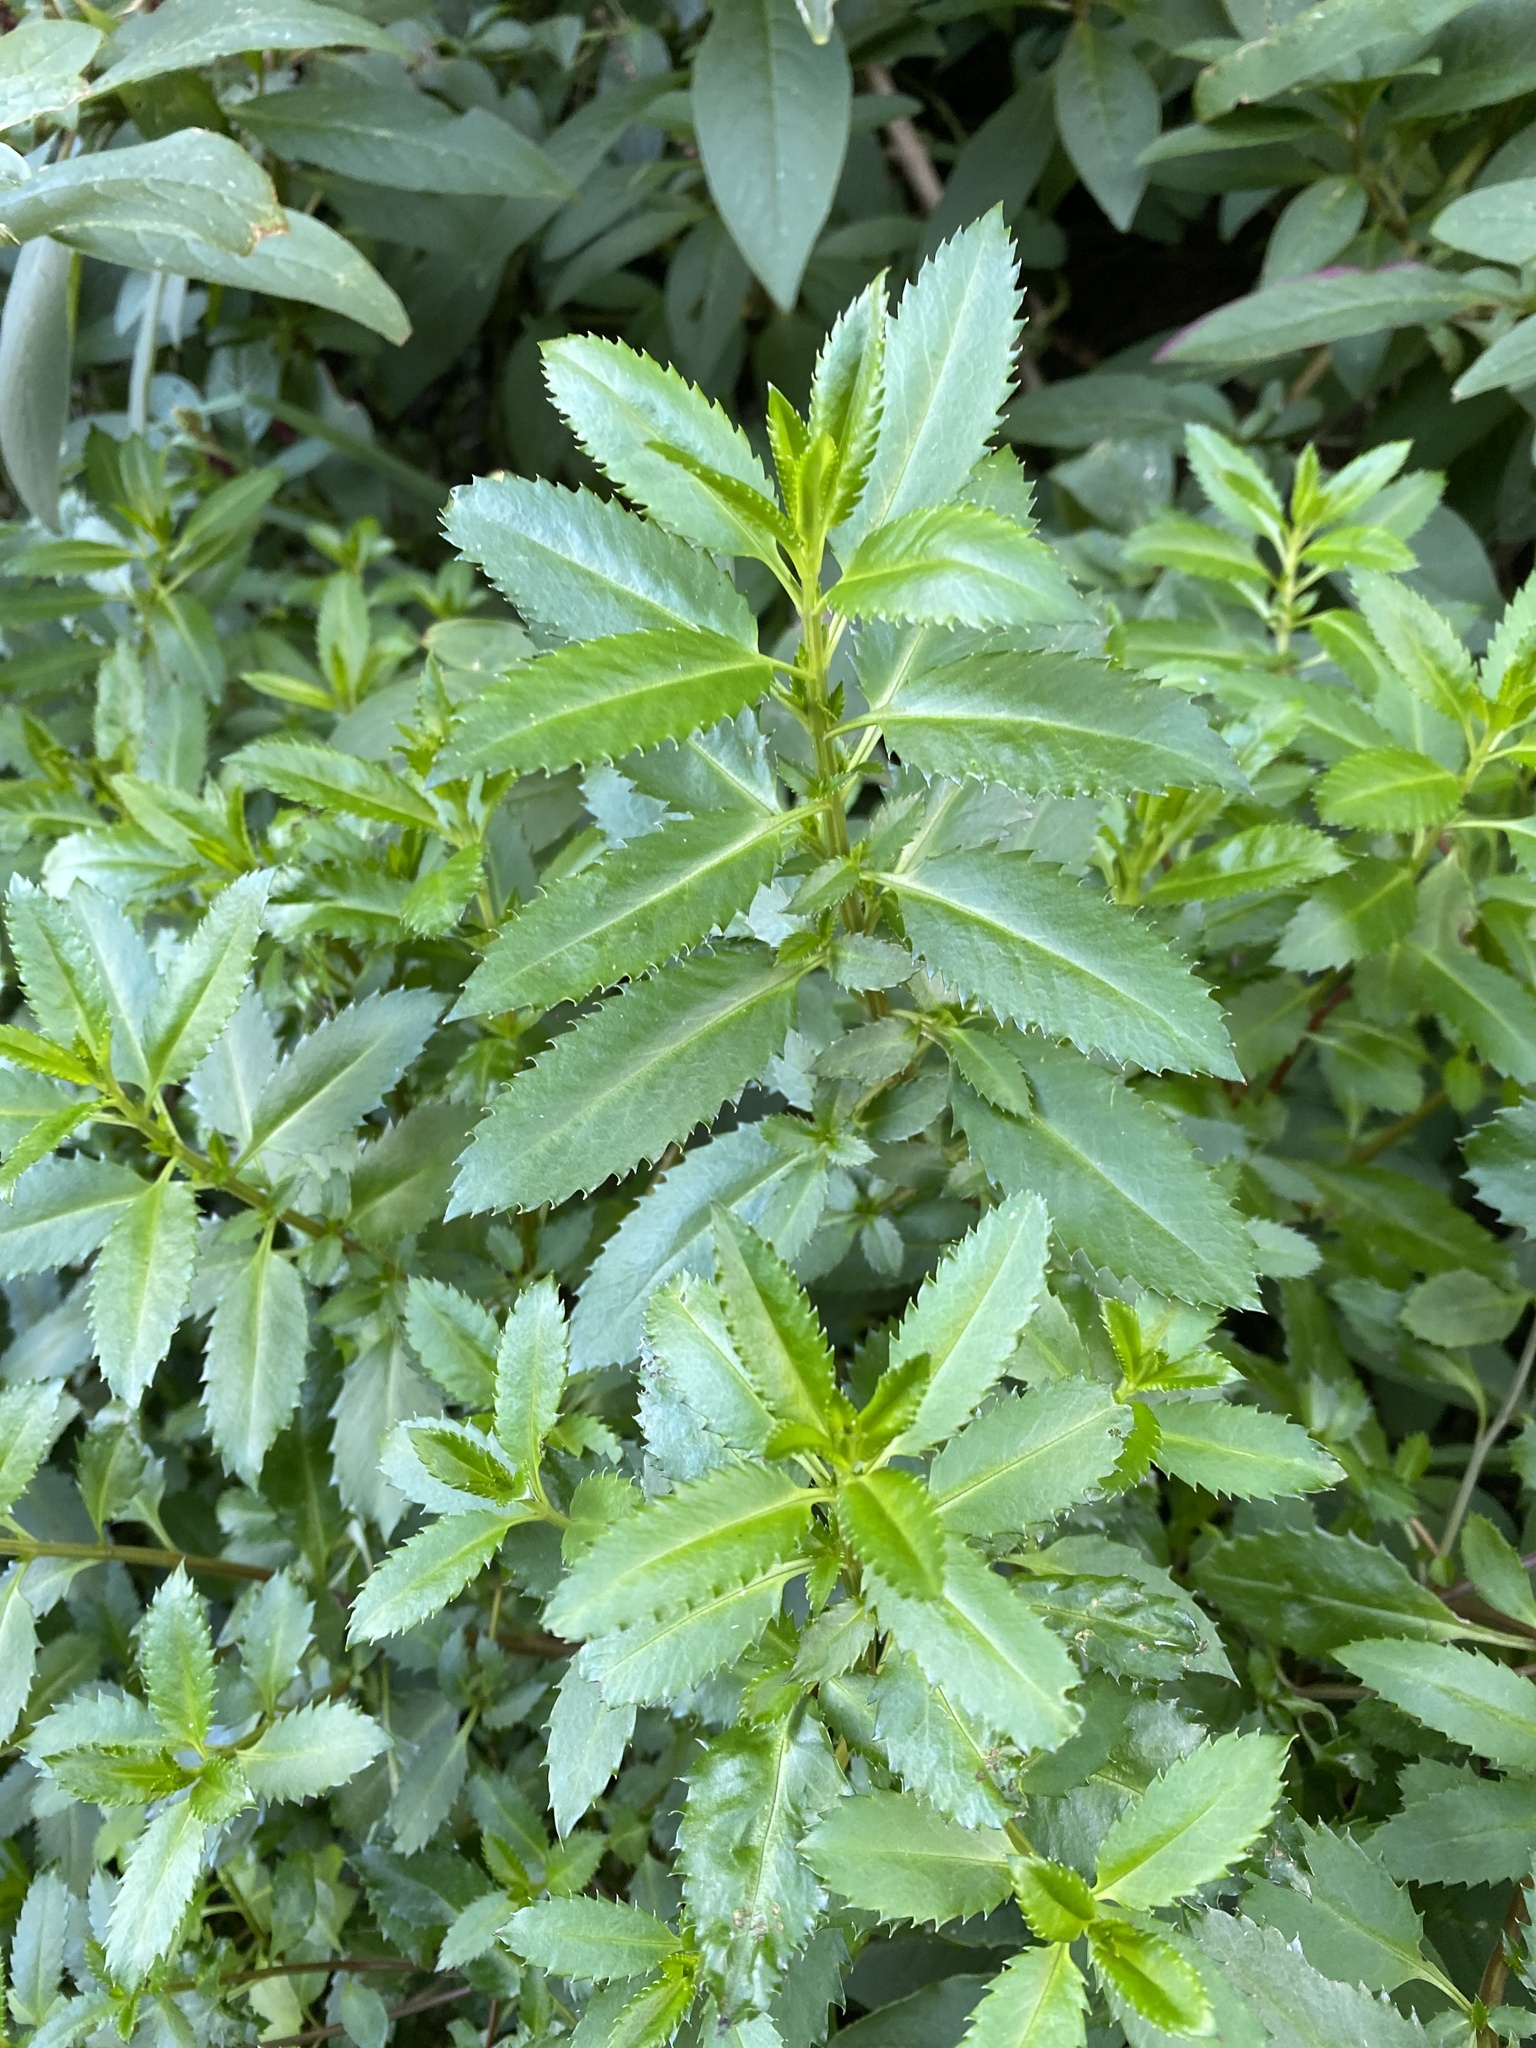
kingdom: Plantae
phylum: Tracheophyta
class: Magnoliopsida
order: Saxifragales
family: Haloragaceae
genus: Haloragis
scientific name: Haloragis erecta
